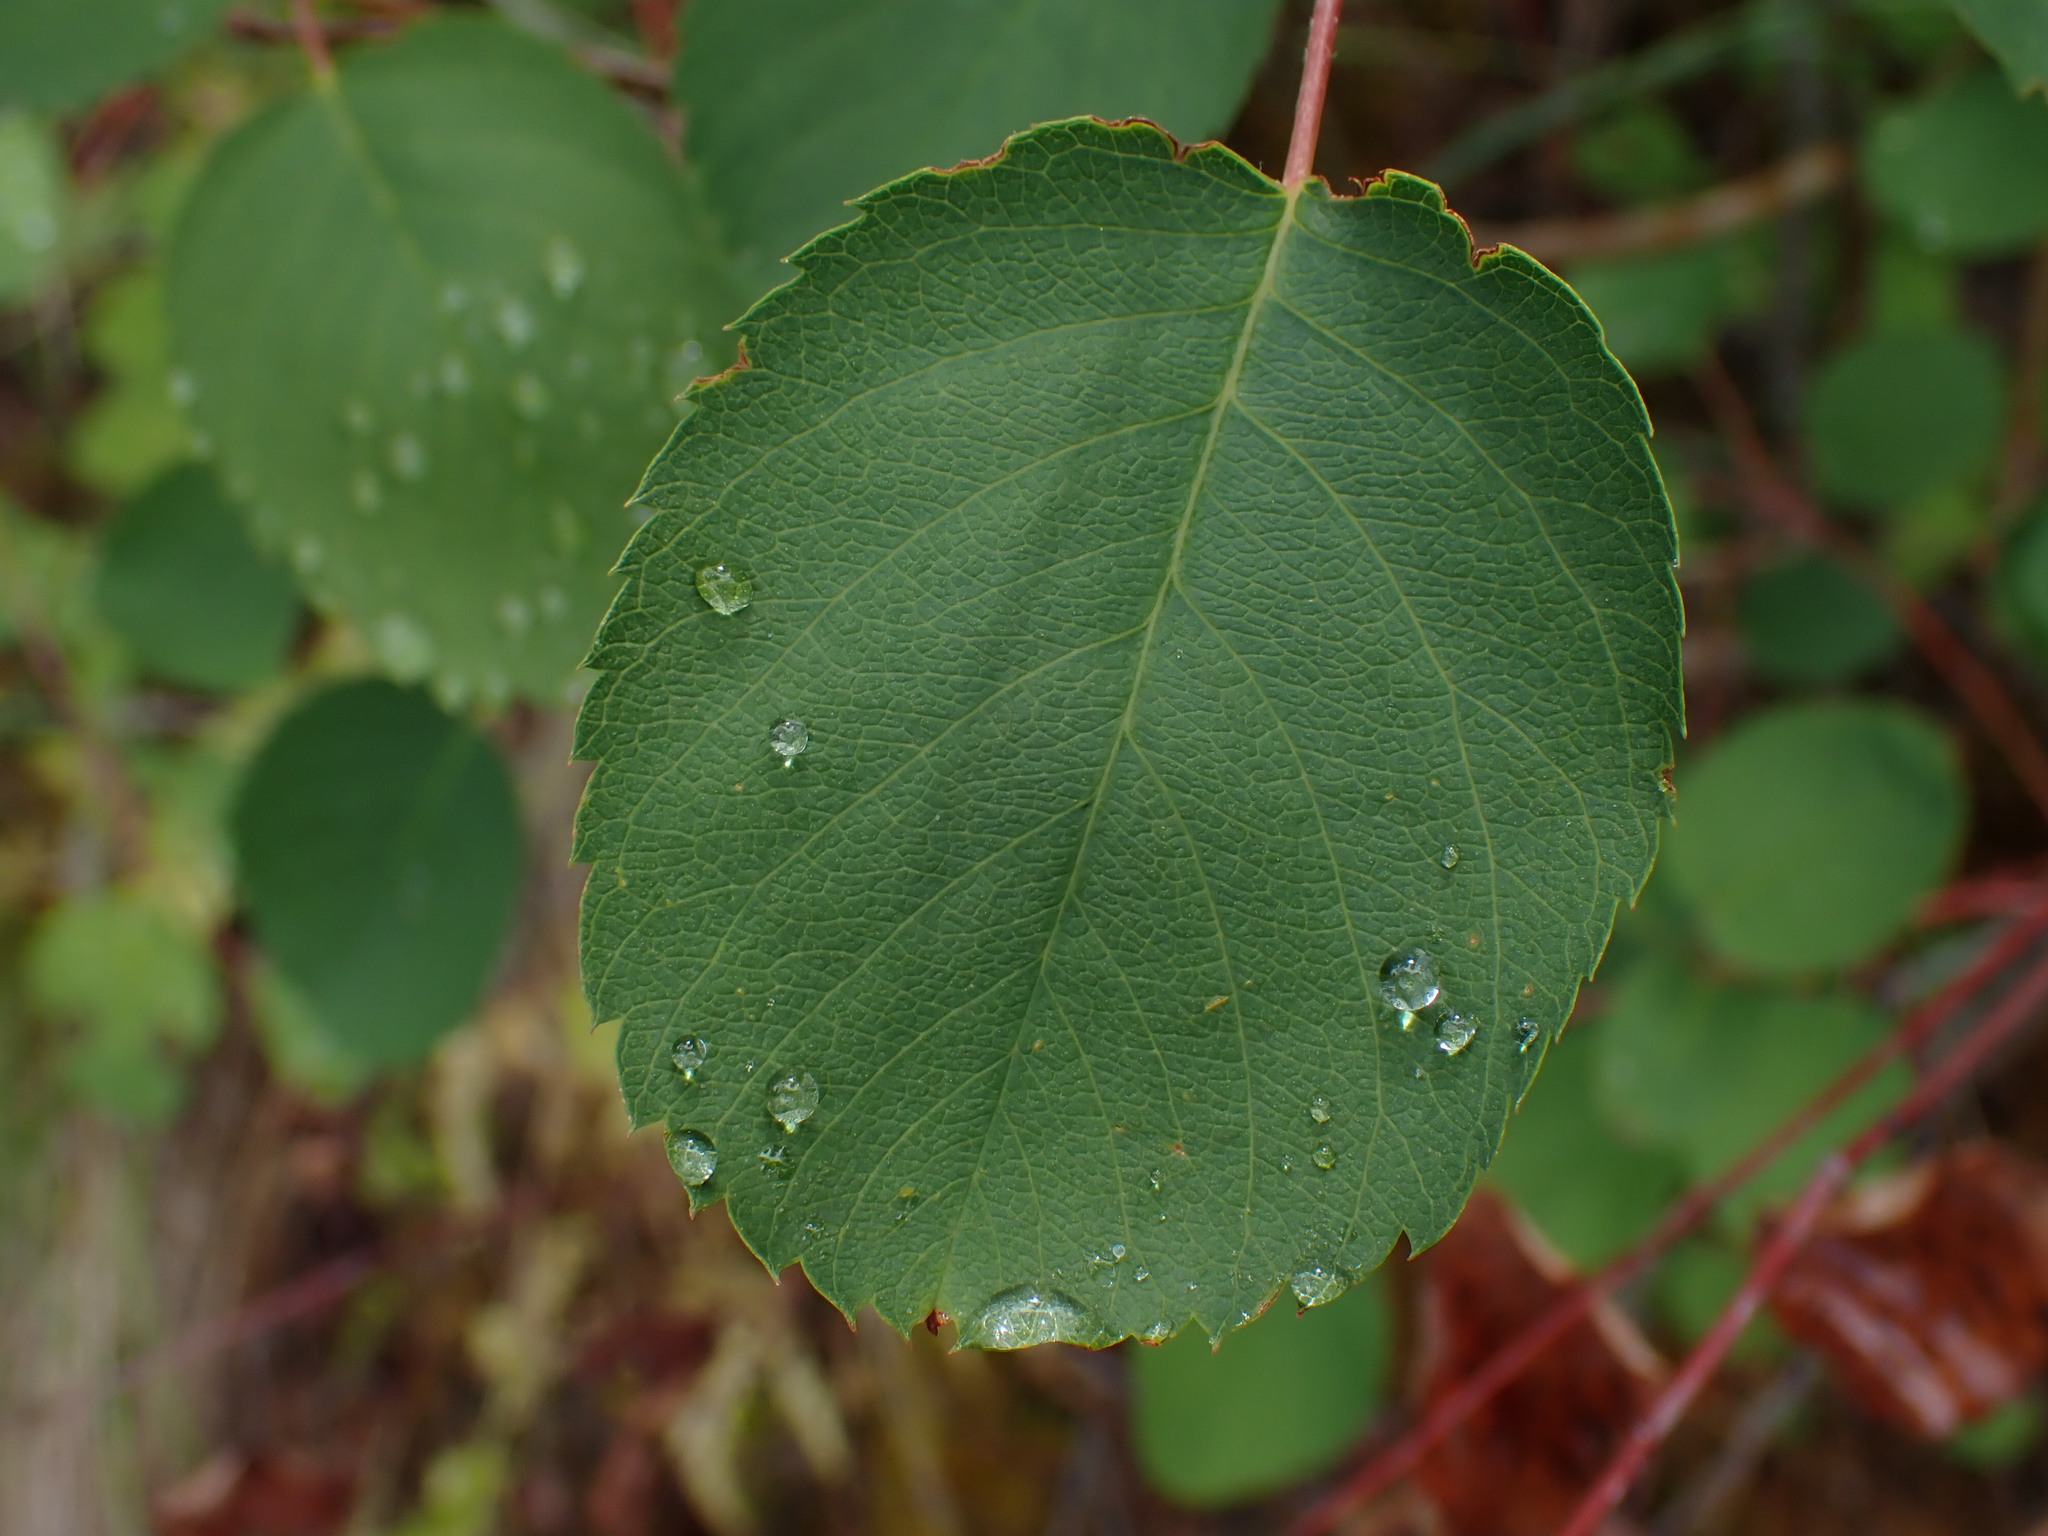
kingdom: Plantae
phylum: Tracheophyta
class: Magnoliopsida
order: Rosales
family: Rosaceae
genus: Amelanchier
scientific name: Amelanchier alnifolia
